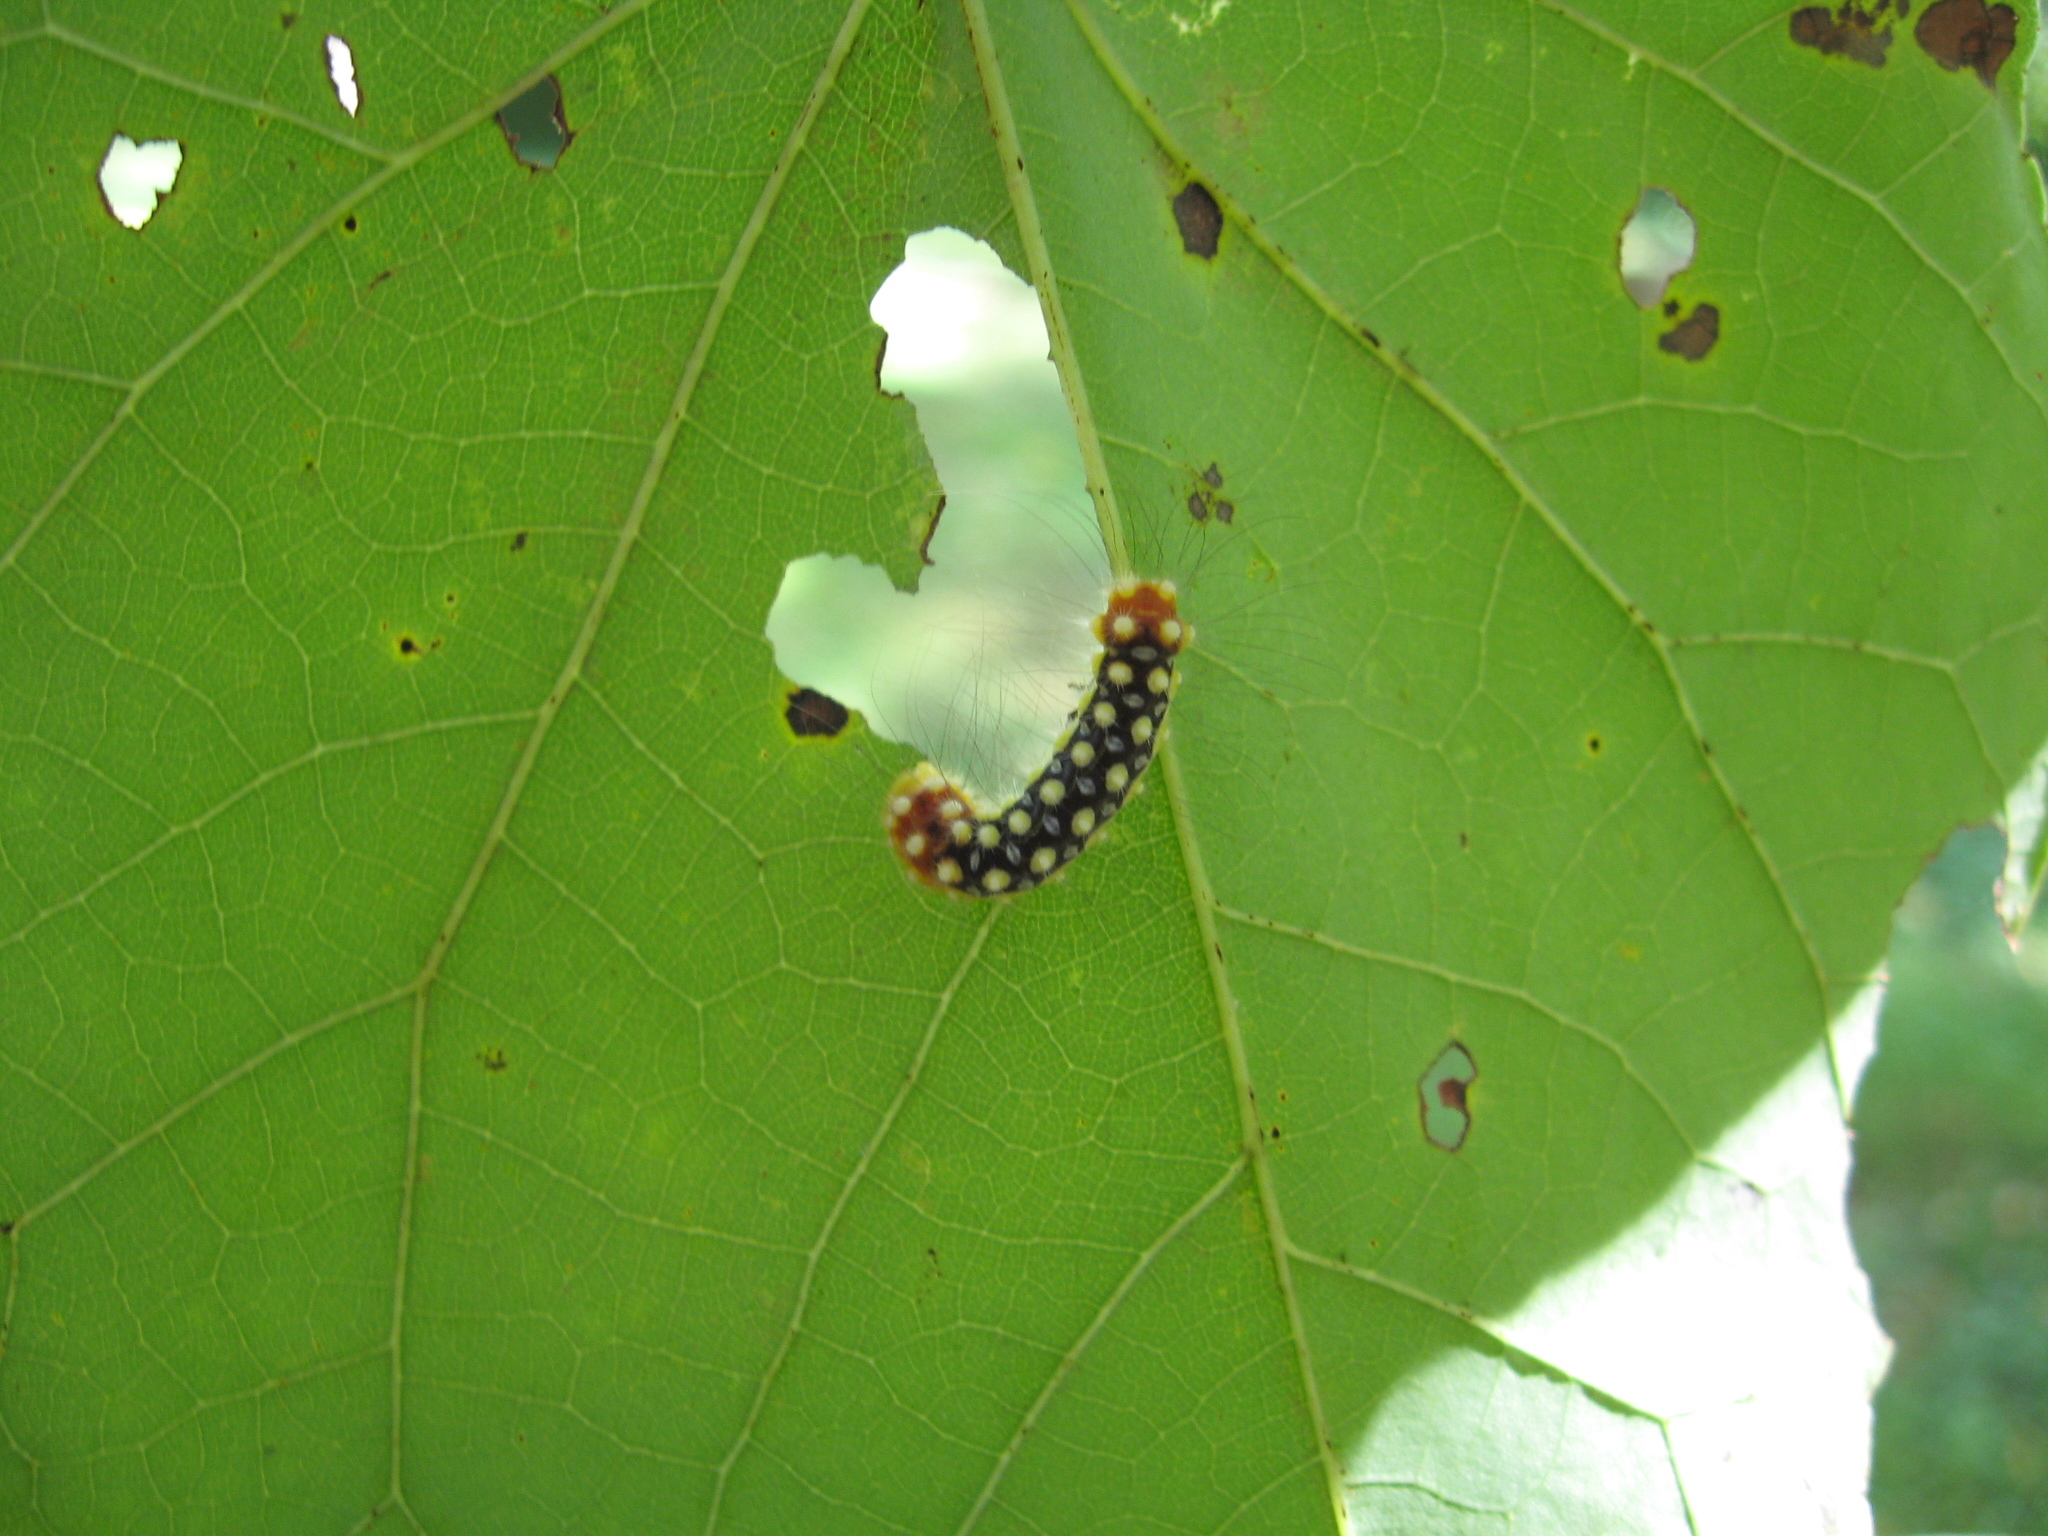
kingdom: Animalia
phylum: Arthropoda
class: Insecta
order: Lepidoptera
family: Megalopygidae
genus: Norape
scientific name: Norape cretata
